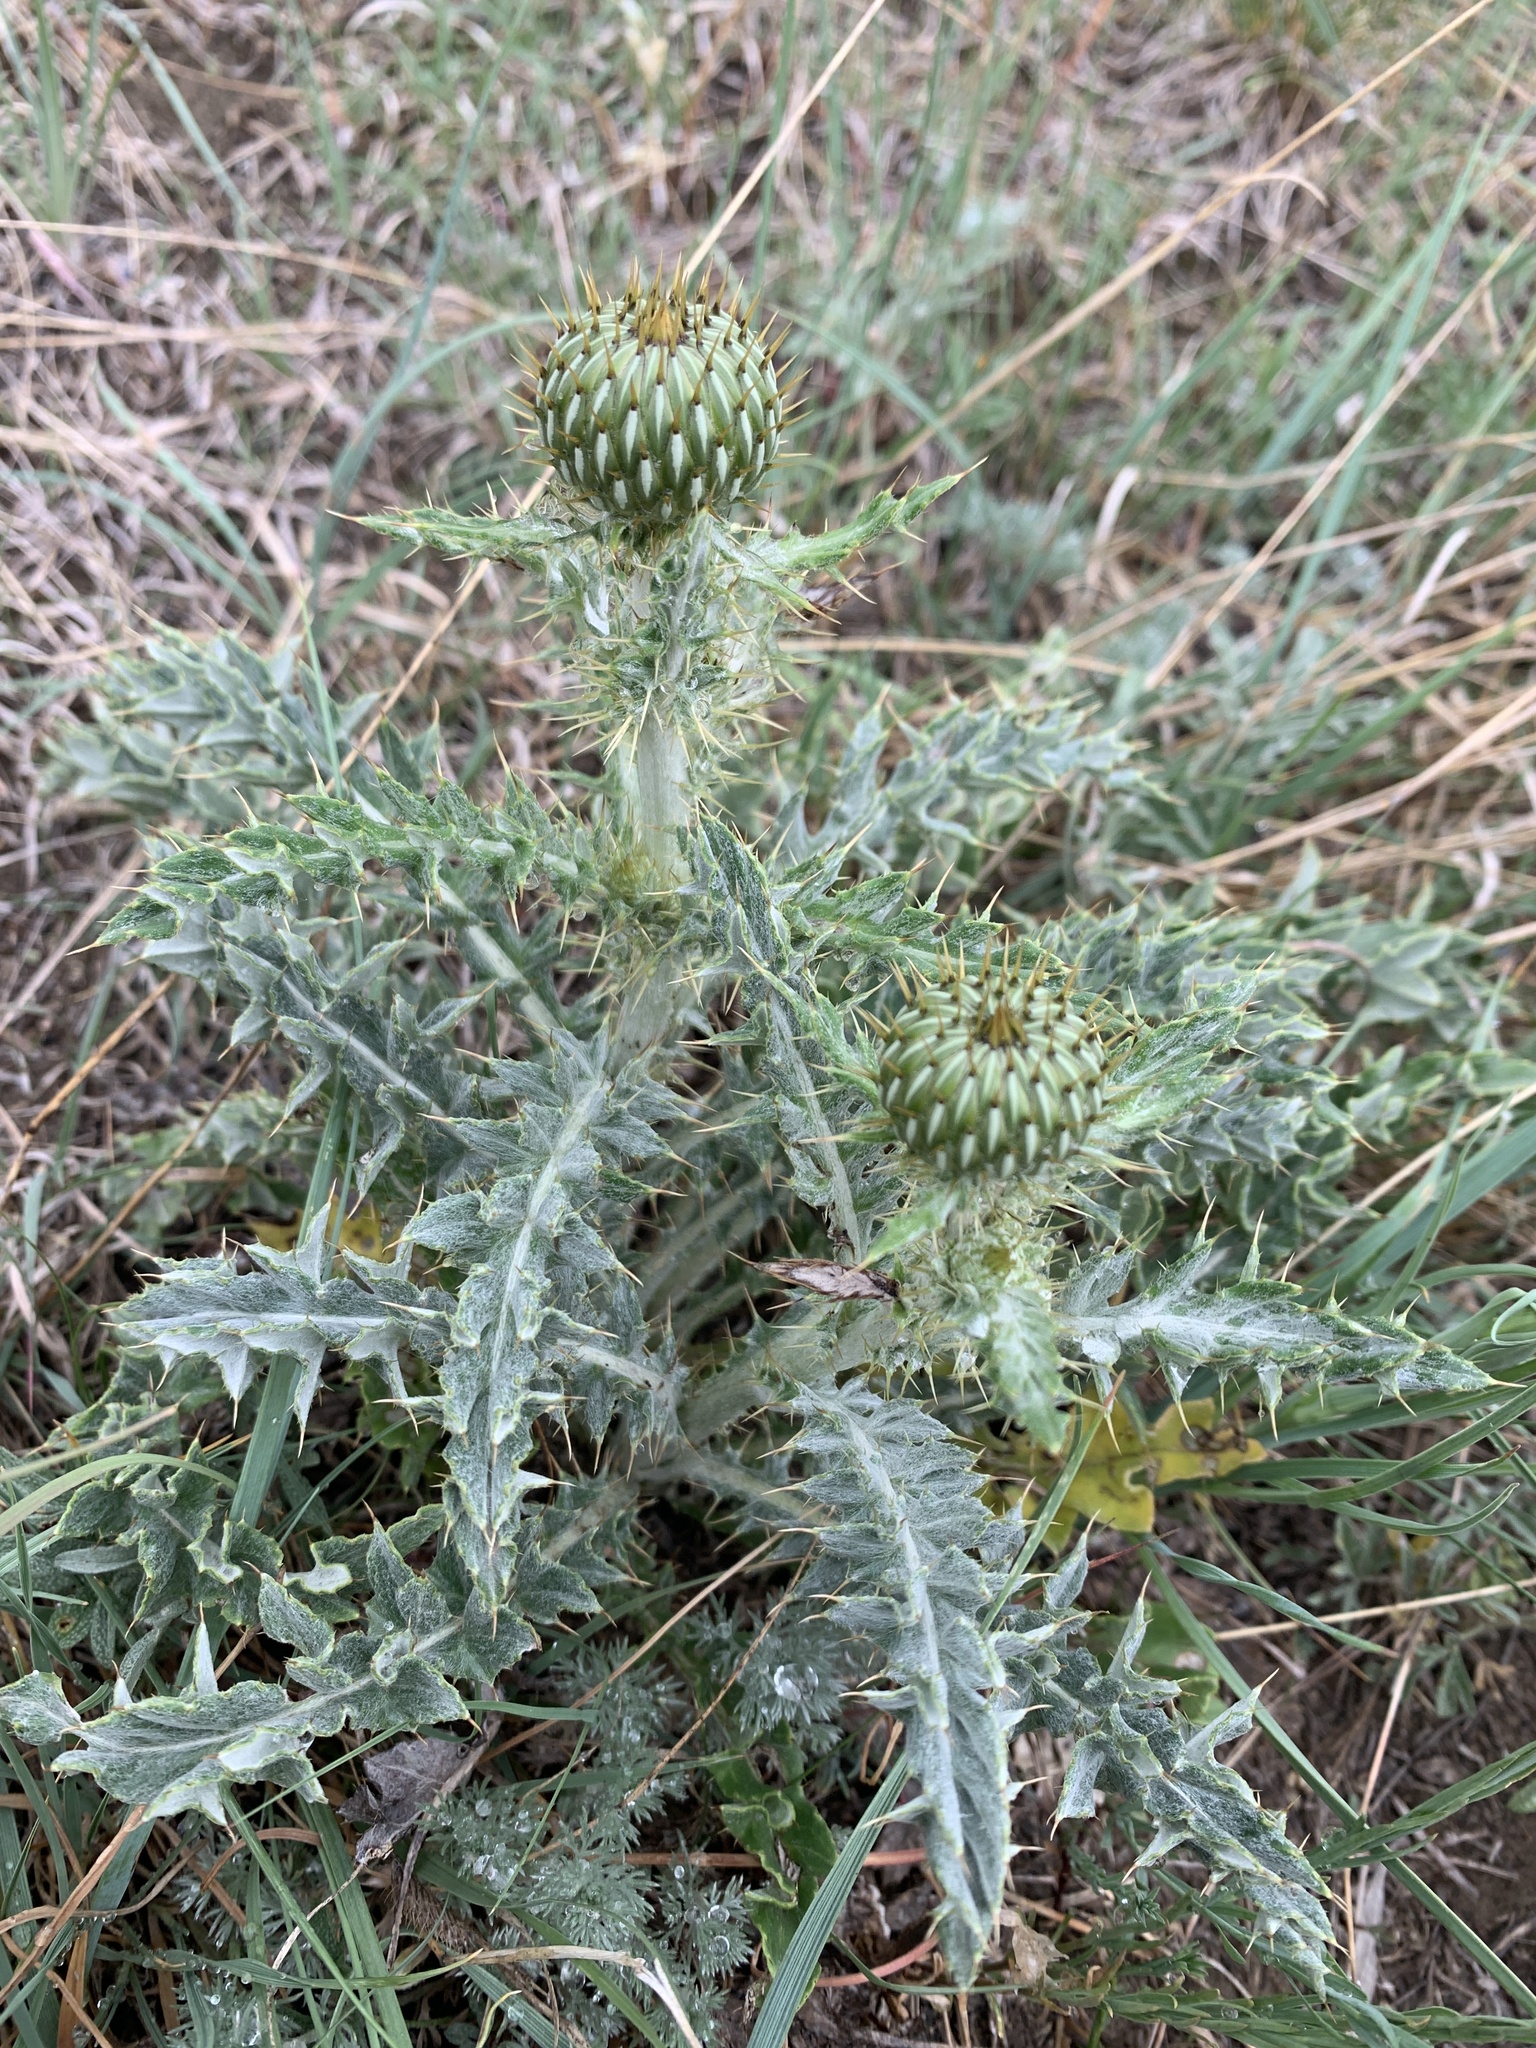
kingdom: Plantae
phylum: Tracheophyta
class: Magnoliopsida
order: Asterales
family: Asteraceae
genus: Cirsium
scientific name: Cirsium undulatum
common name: Pasture thistle
